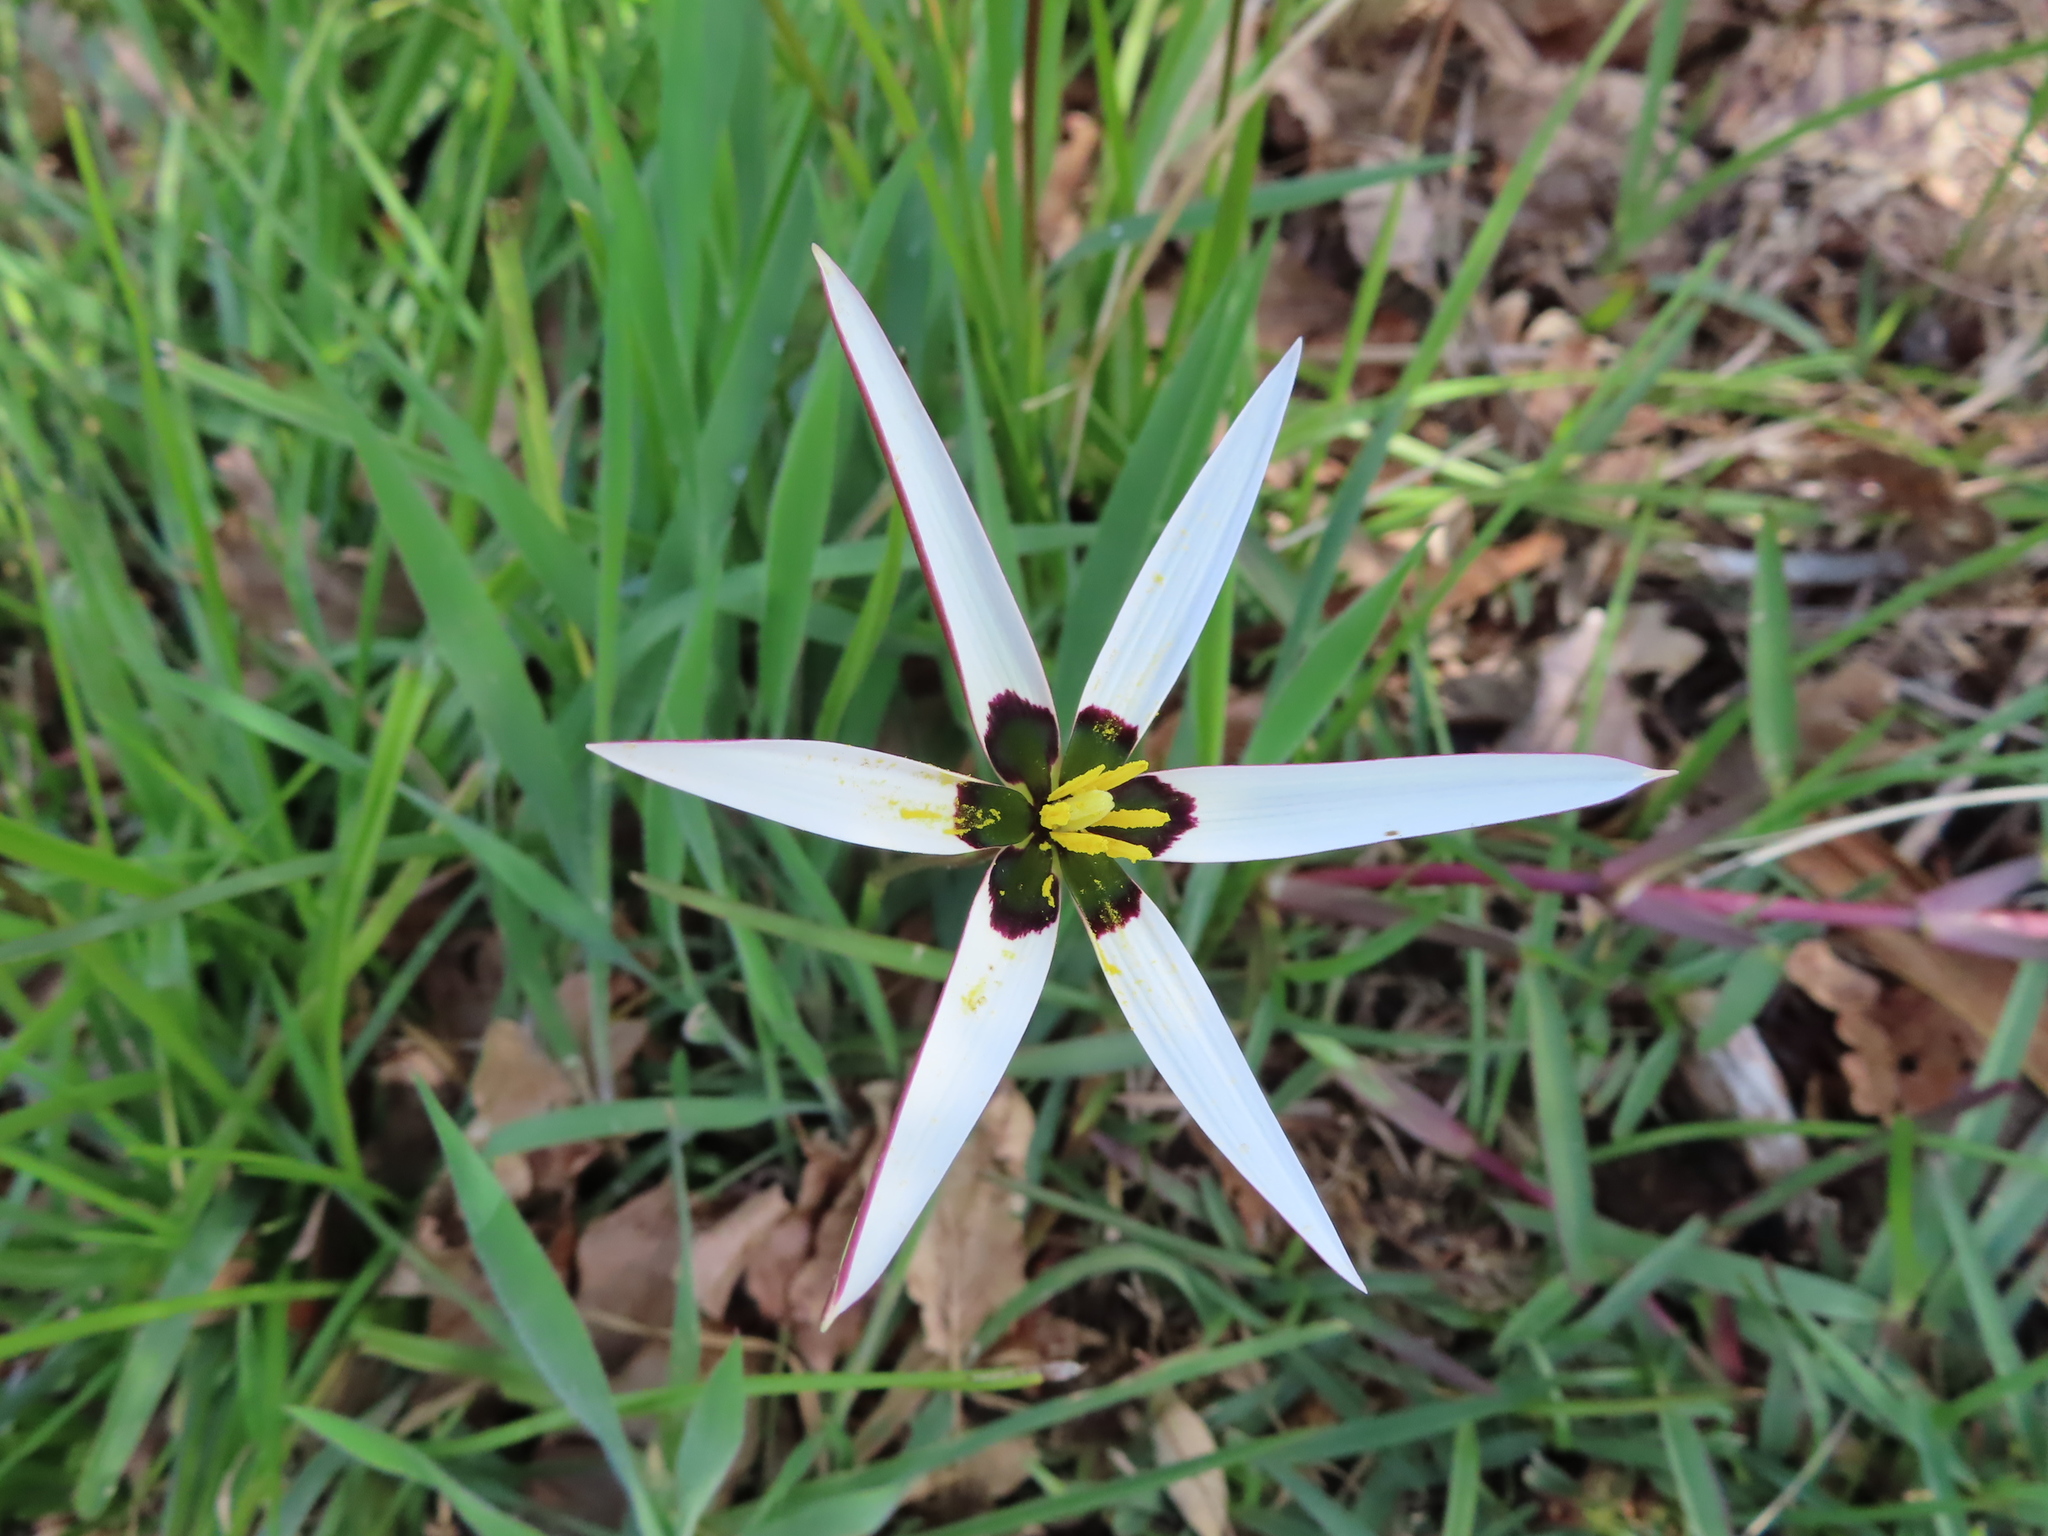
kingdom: Plantae
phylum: Tracheophyta
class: Liliopsida
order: Asparagales
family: Hypoxidaceae
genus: Pauridia
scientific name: Pauridia capensis
